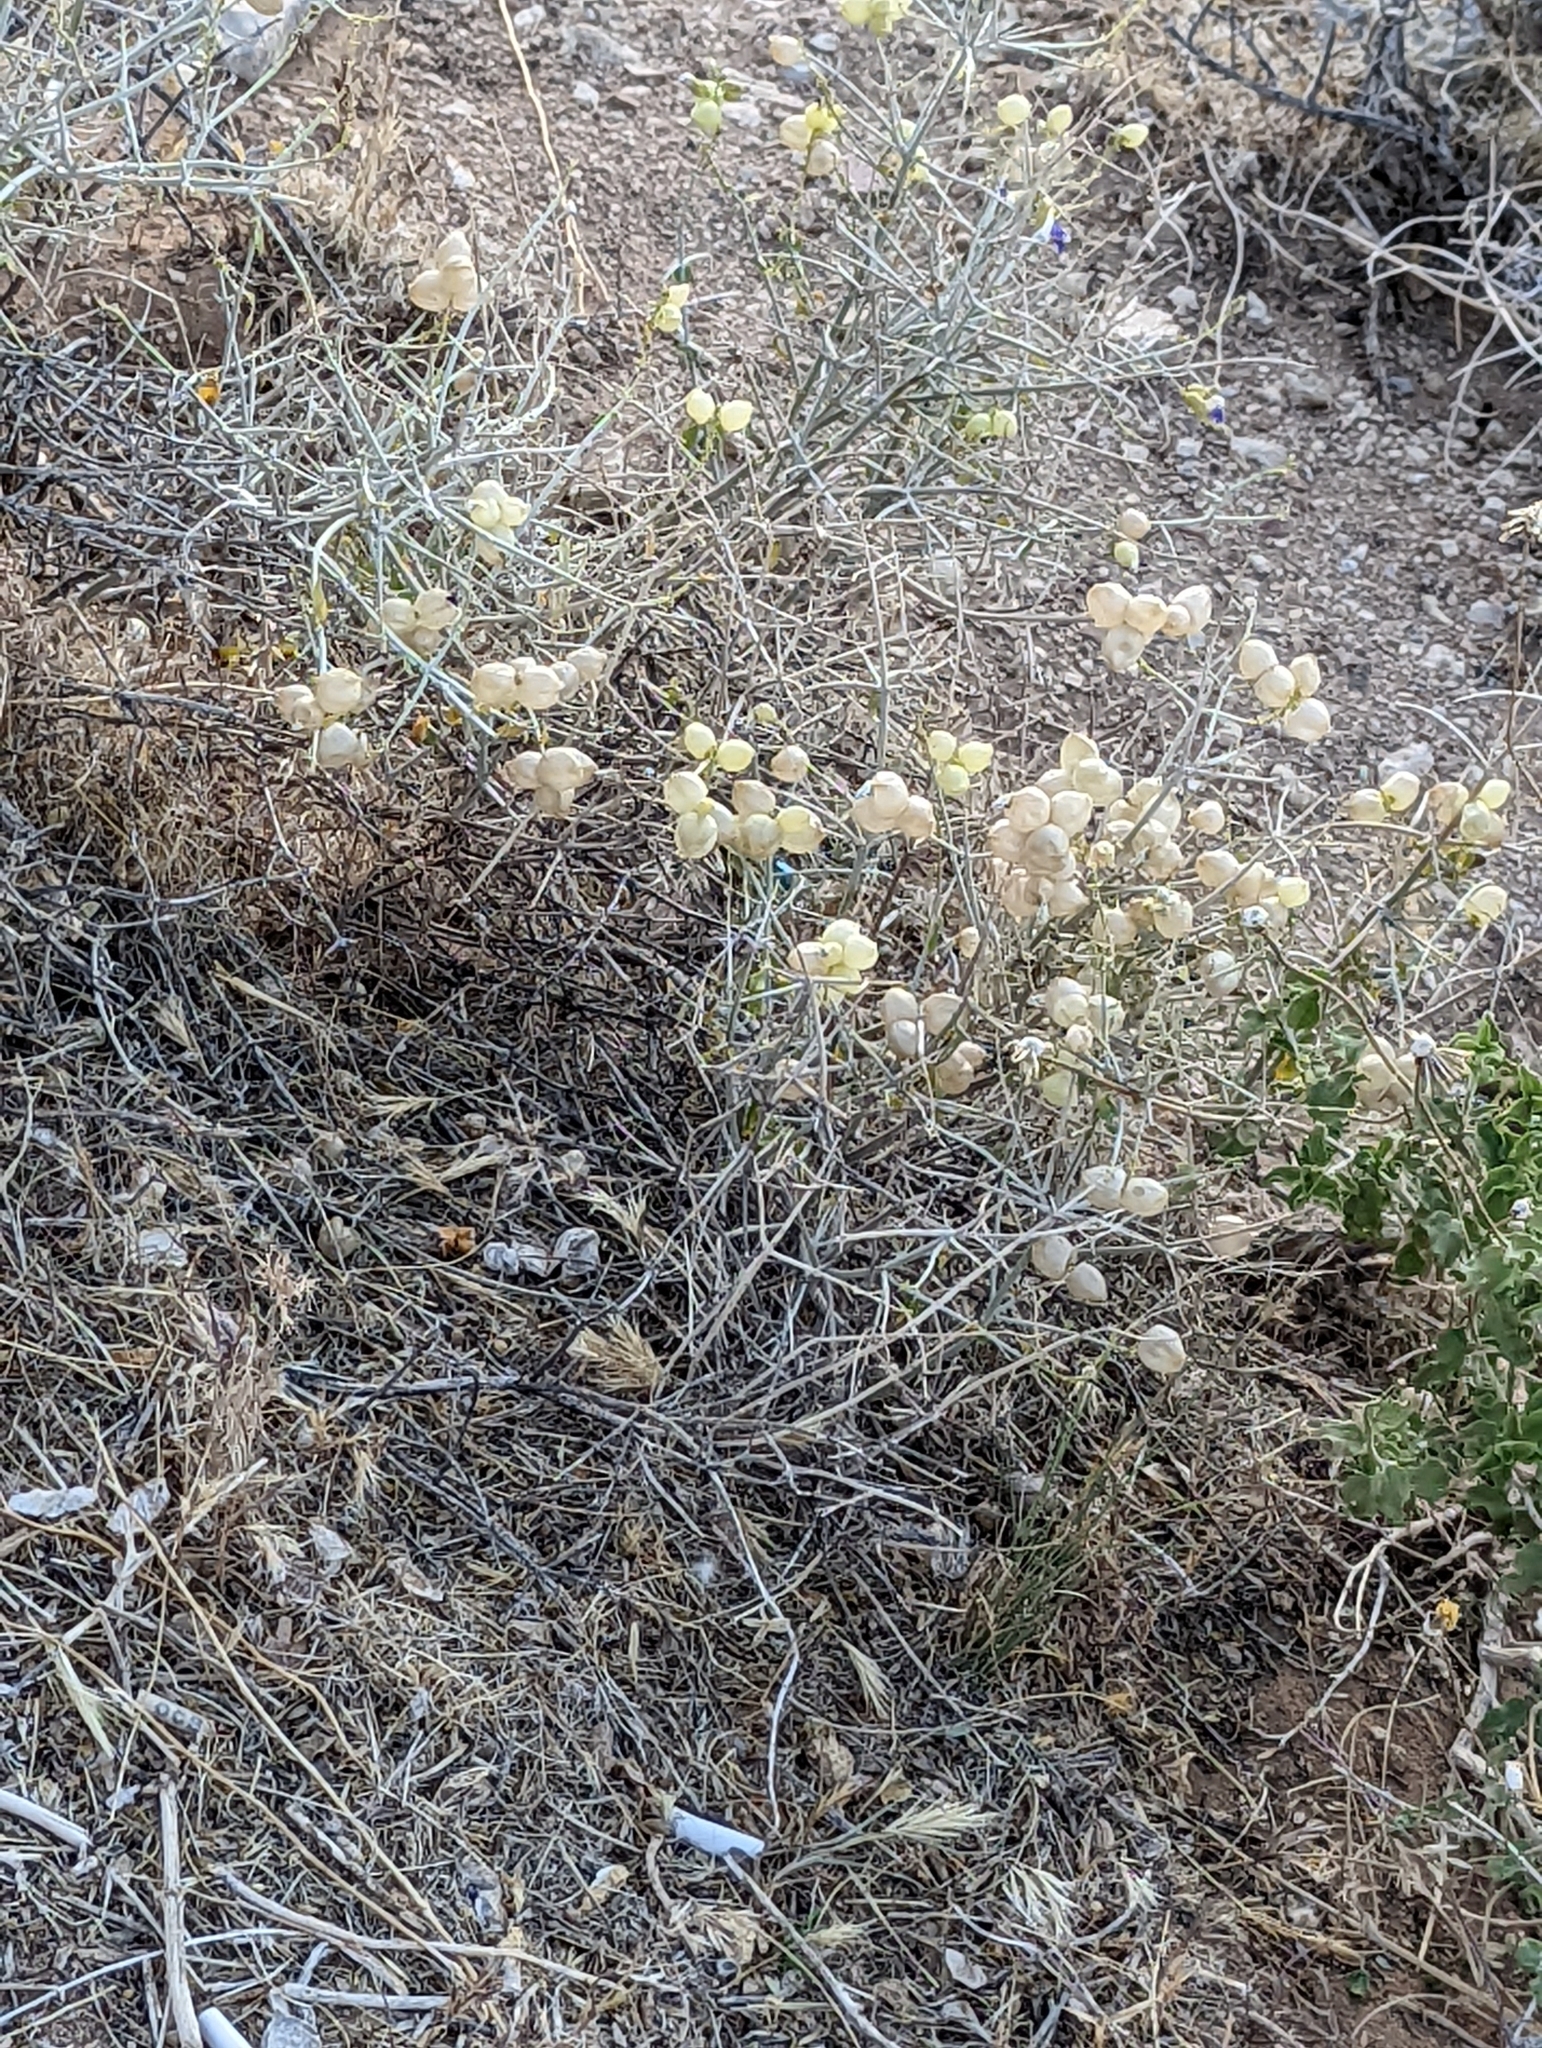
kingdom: Plantae
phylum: Tracheophyta
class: Magnoliopsida
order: Lamiales
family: Lamiaceae
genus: Scutellaria
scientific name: Scutellaria mexicana
